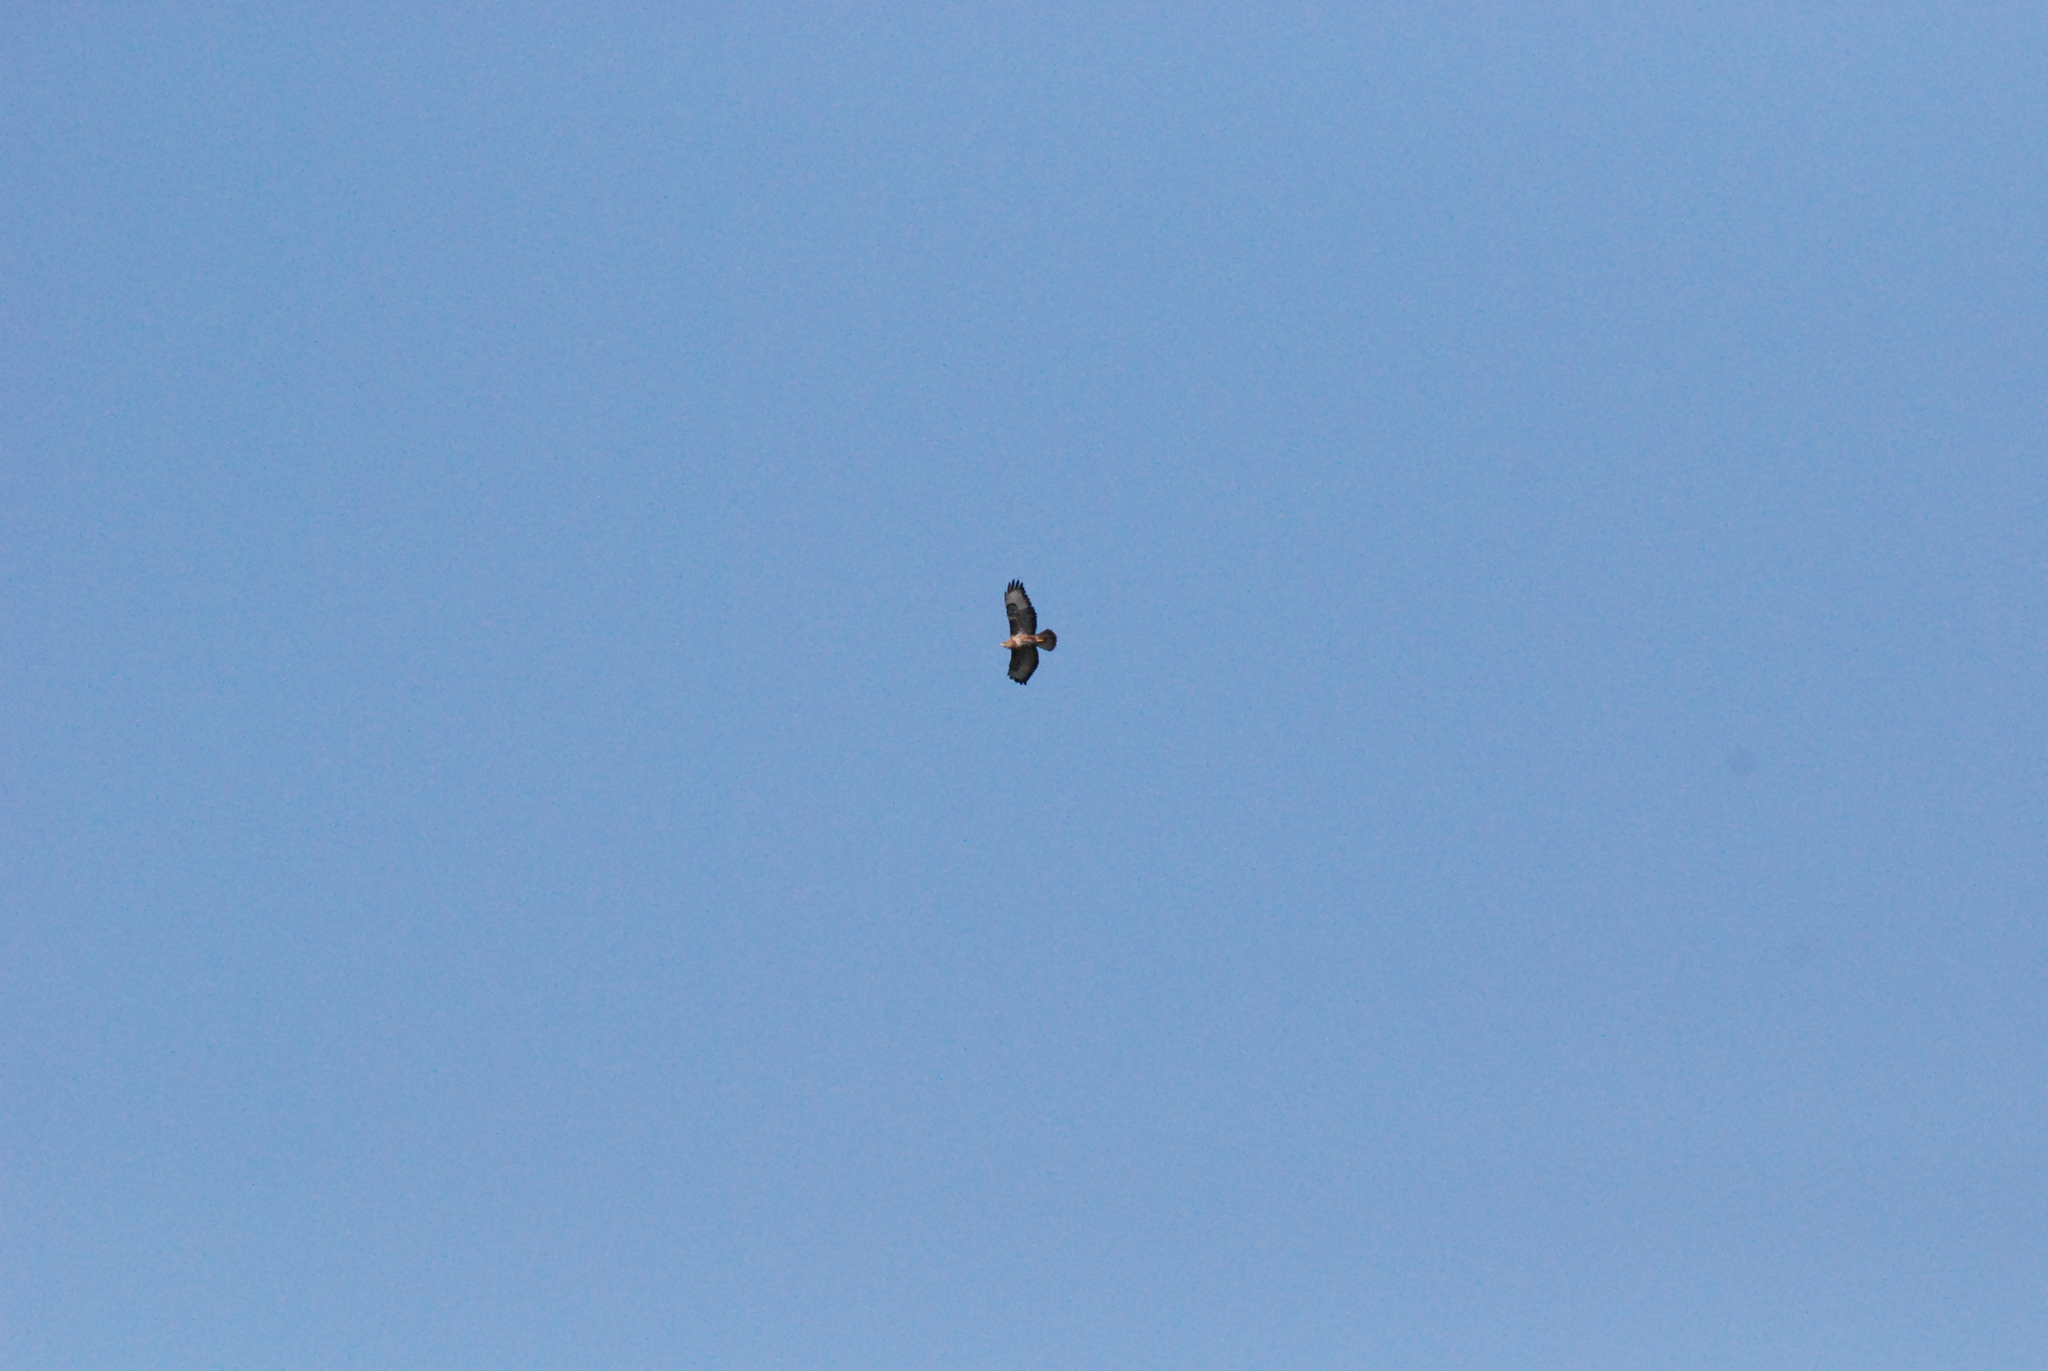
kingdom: Animalia
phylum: Chordata
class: Aves
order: Accipitriformes
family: Accipitridae
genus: Buteo
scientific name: Buteo buteo
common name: Common buzzard
